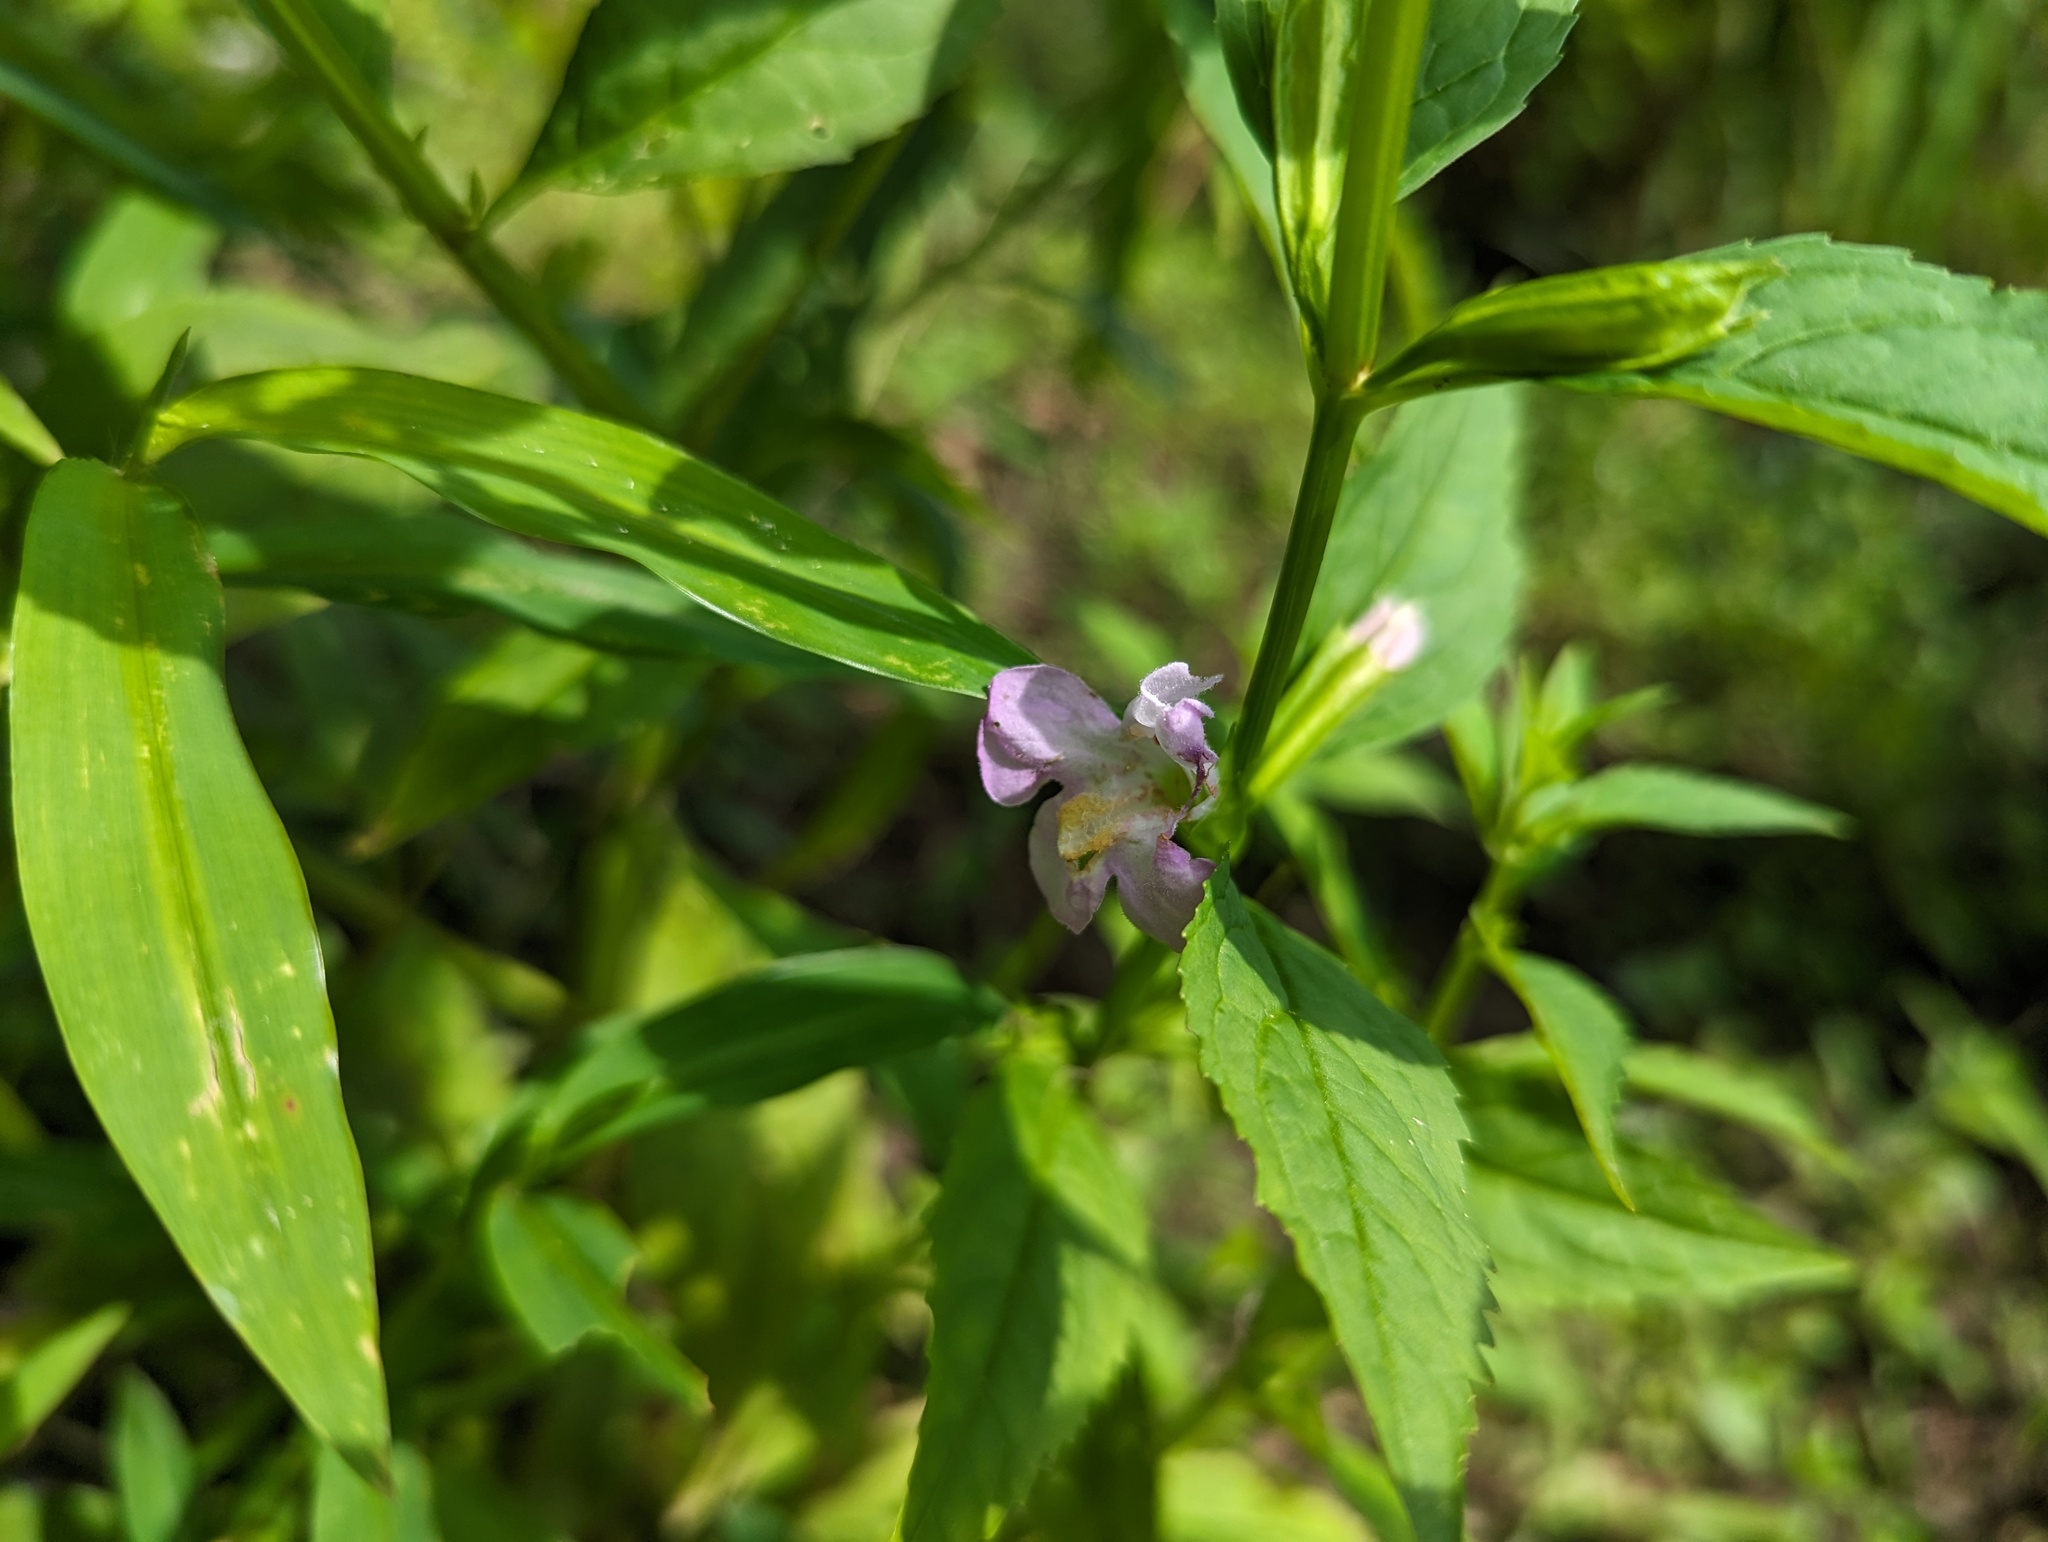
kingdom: Plantae
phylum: Tracheophyta
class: Magnoliopsida
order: Lamiales
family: Phrymaceae
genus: Mimulus
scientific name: Mimulus alatus
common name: Sharp-wing monkey-flower
